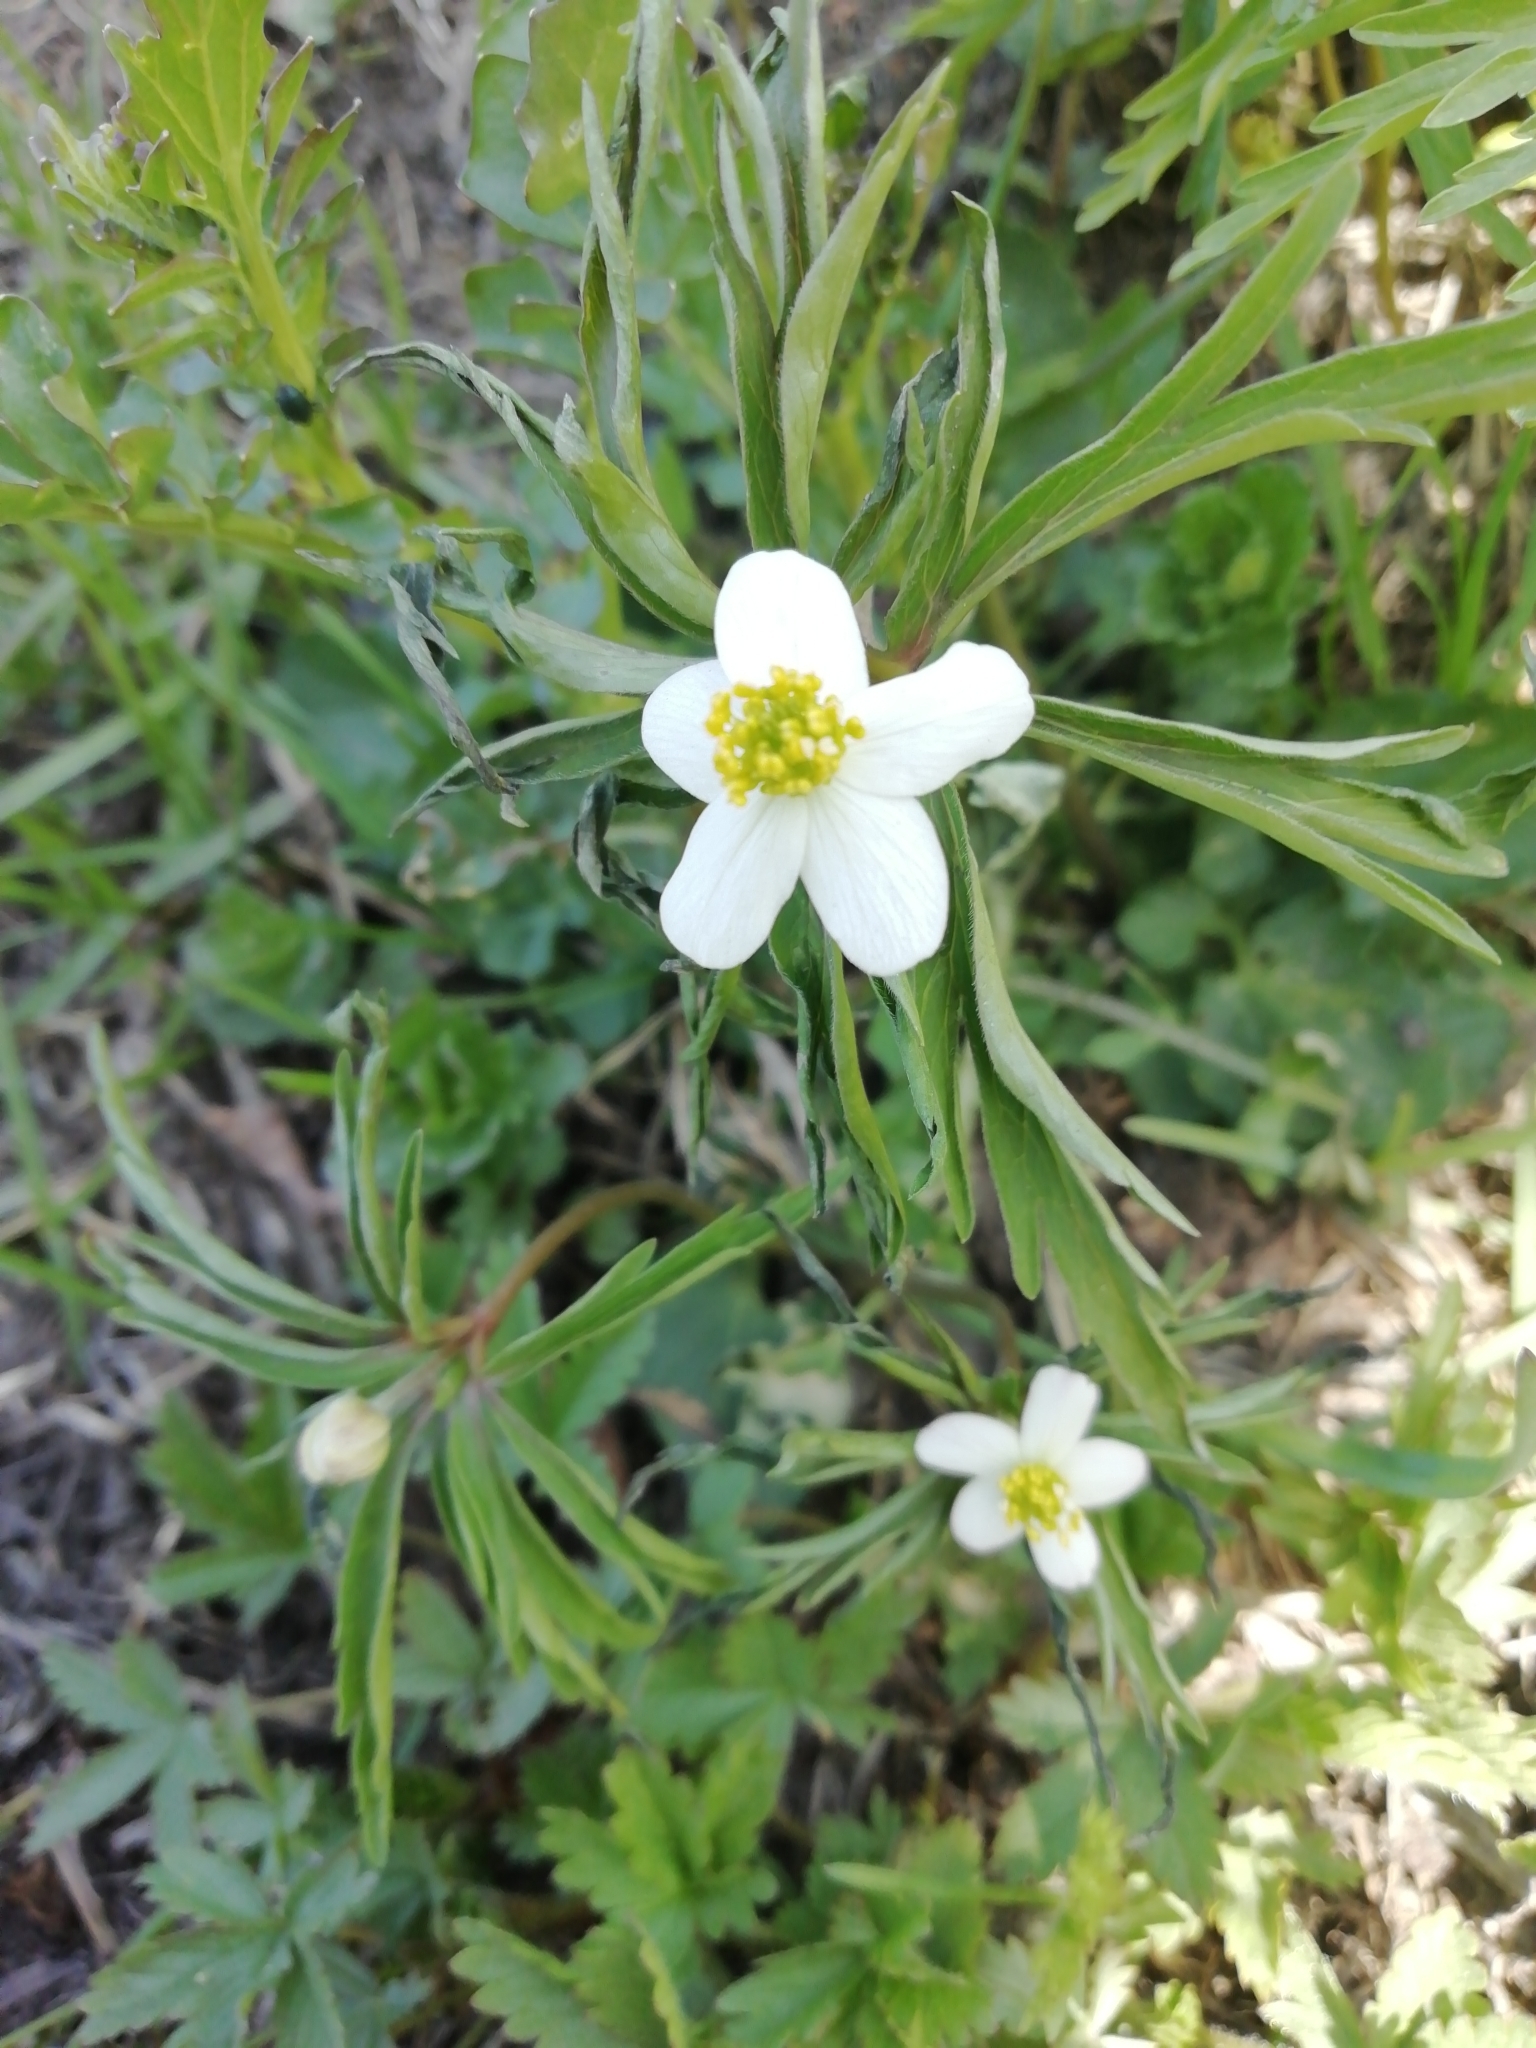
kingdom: Plantae
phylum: Tracheophyta
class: Magnoliopsida
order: Ranunculales
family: Ranunculaceae
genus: Anemone
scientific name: Anemone caerulea
